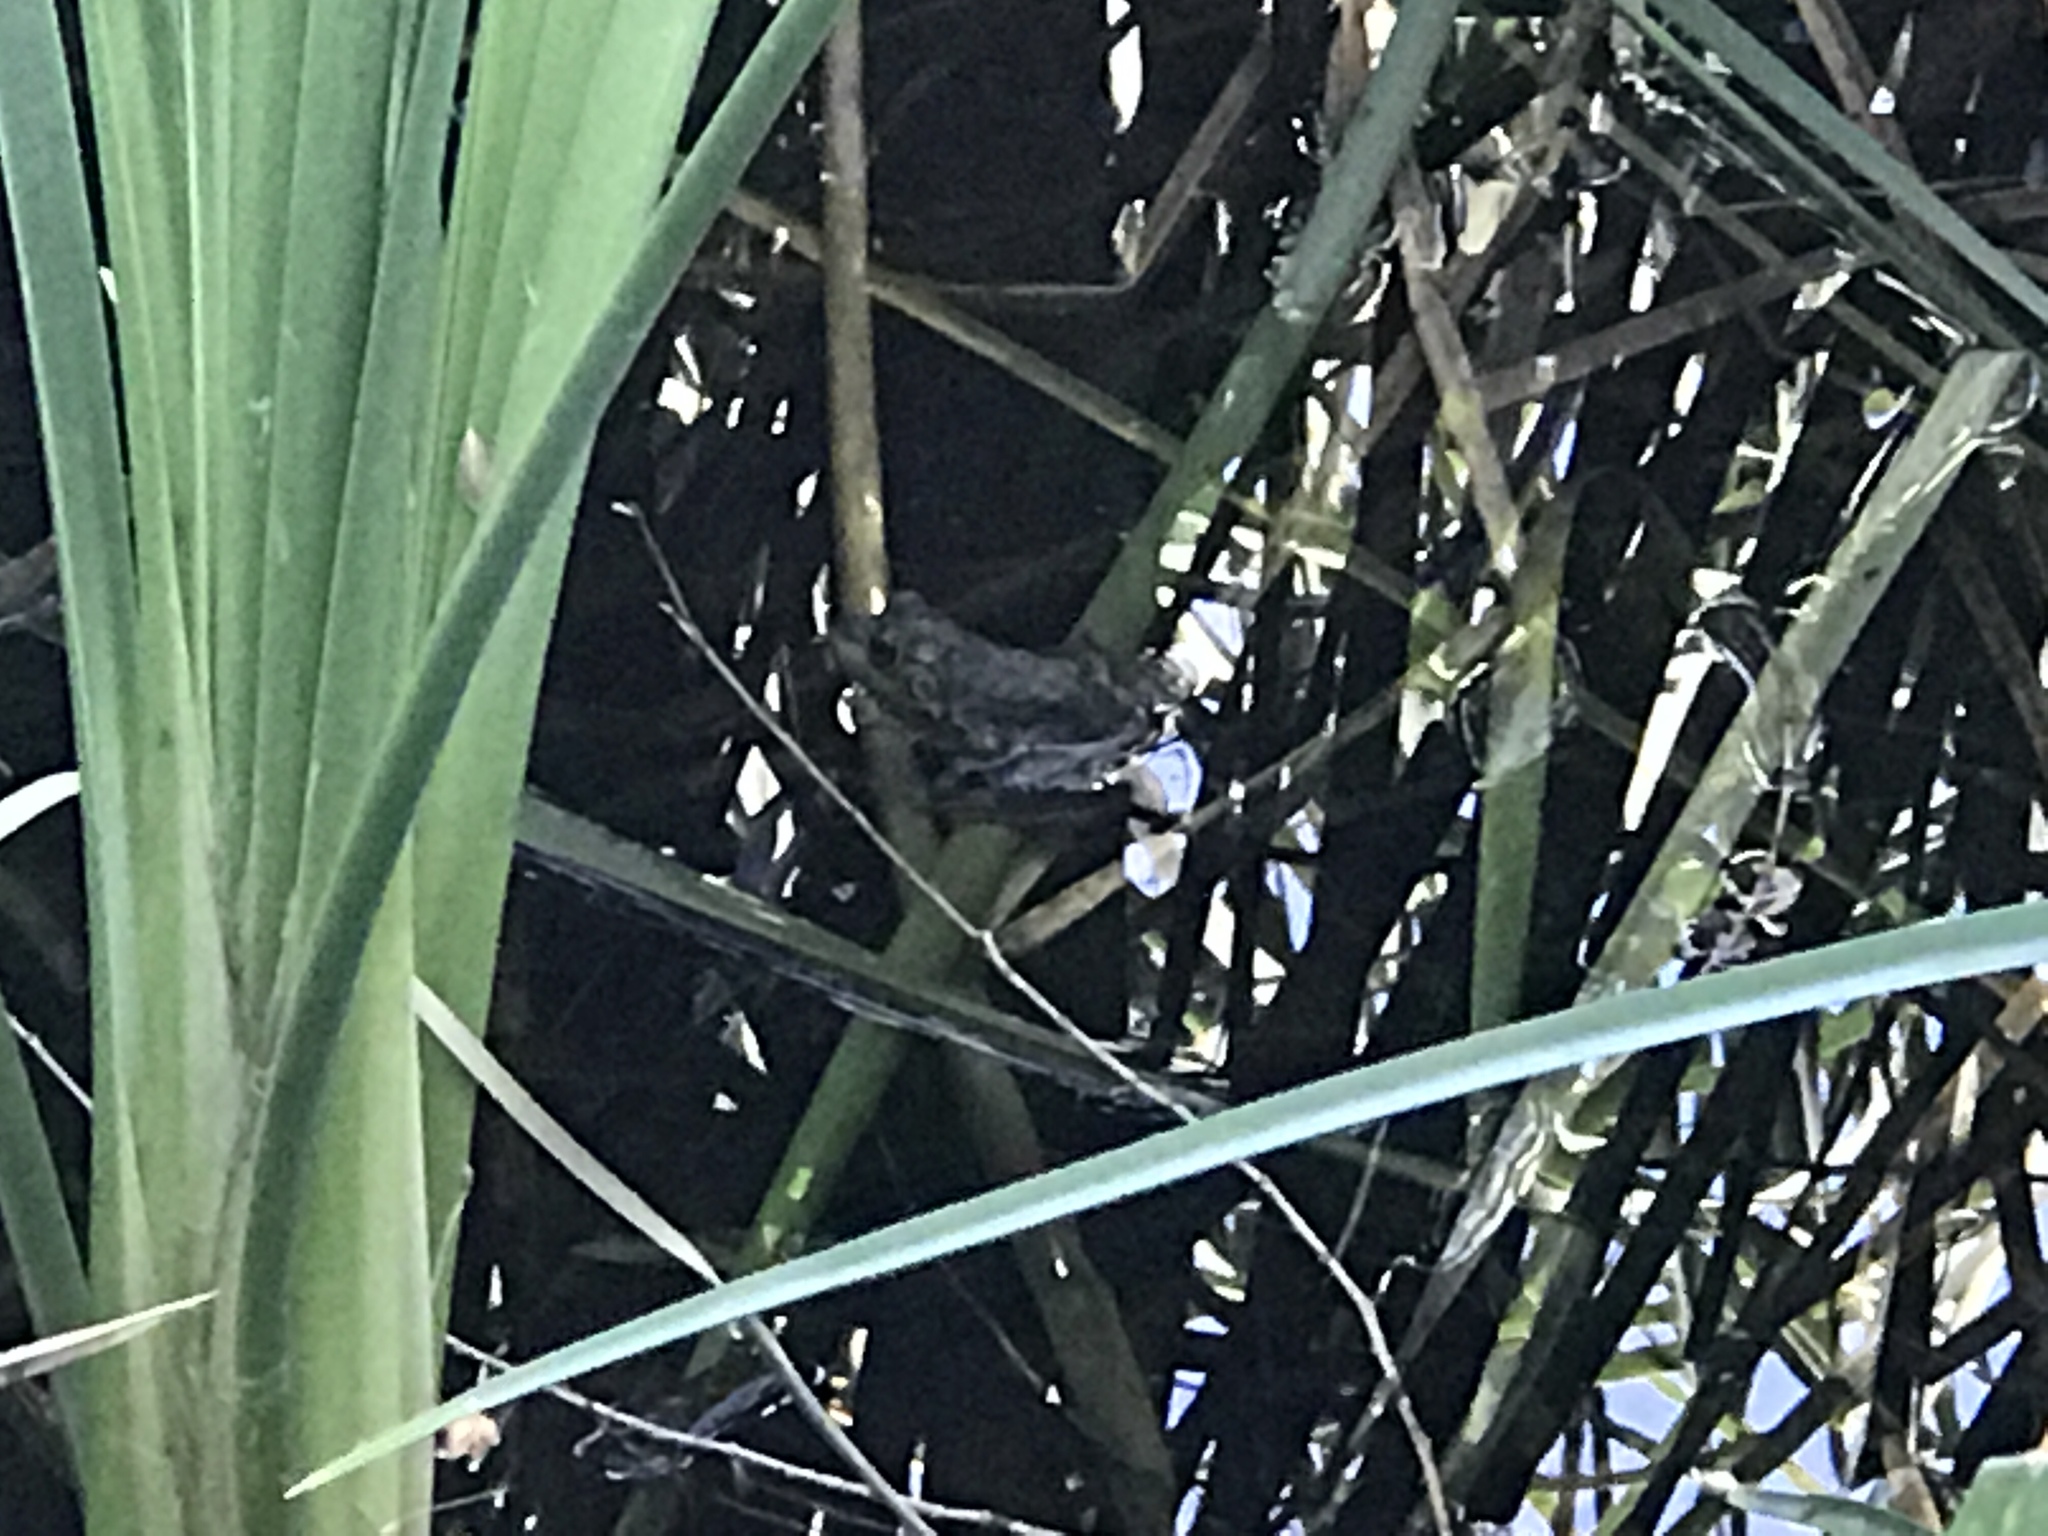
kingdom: Animalia
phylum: Chordata
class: Amphibia
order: Anura
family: Ranidae
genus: Lithobates
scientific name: Lithobates catesbeianus
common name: American bullfrog
